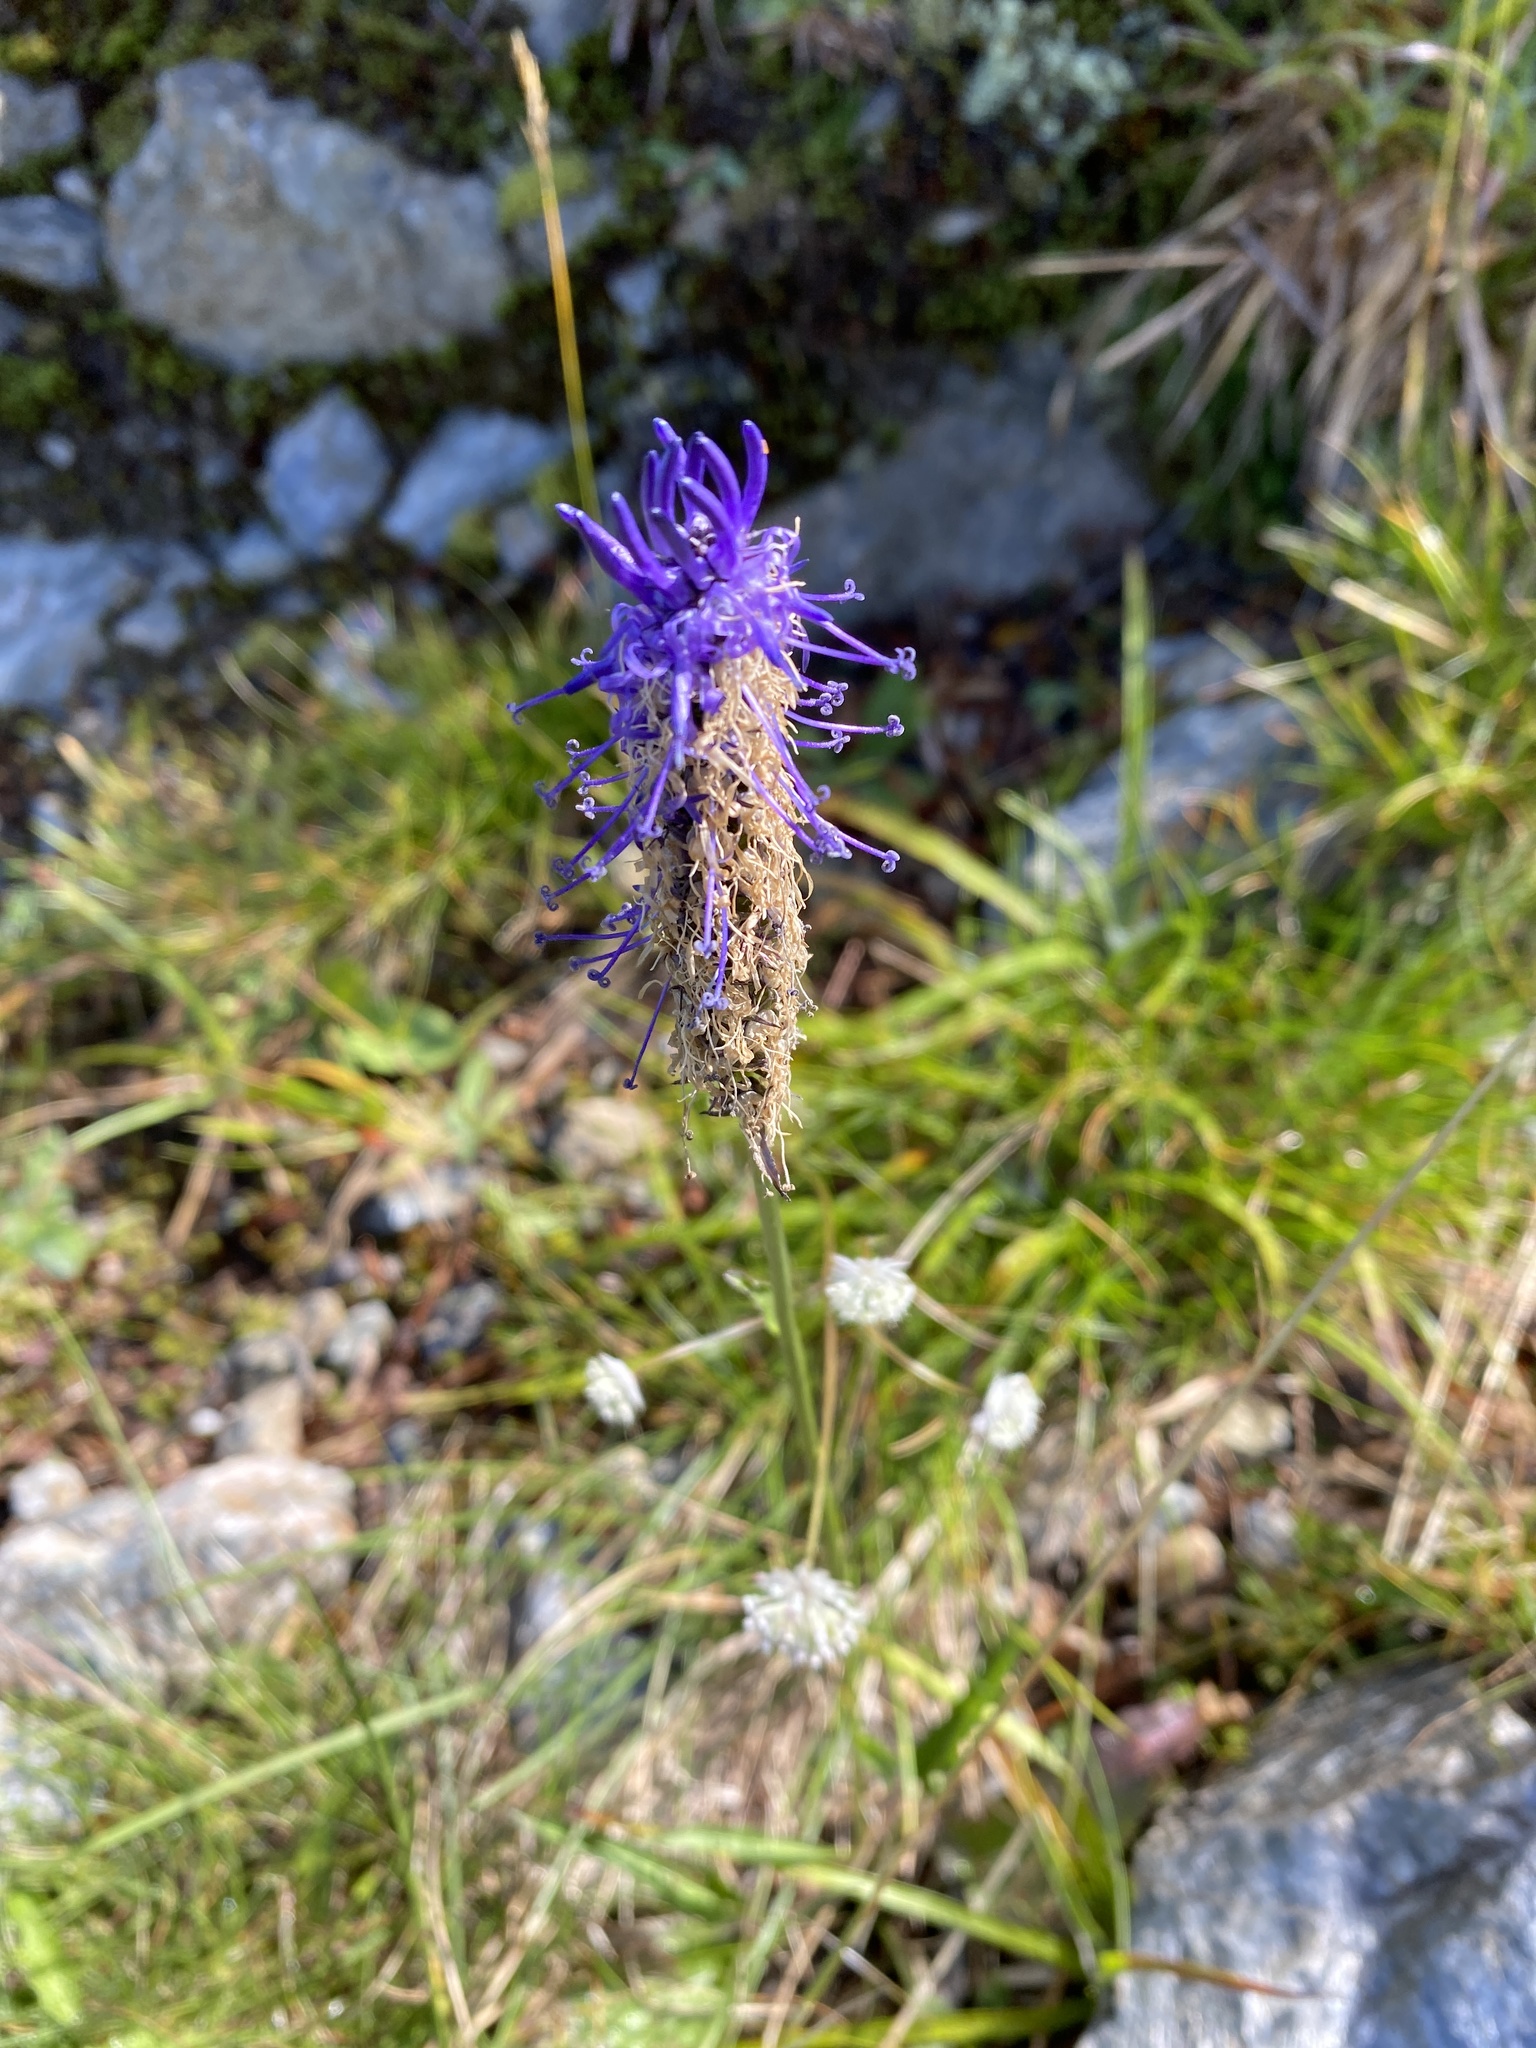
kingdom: Plantae
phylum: Tracheophyta
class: Magnoliopsida
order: Asterales
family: Campanulaceae
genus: Phyteuma
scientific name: Phyteuma betonicifolium
